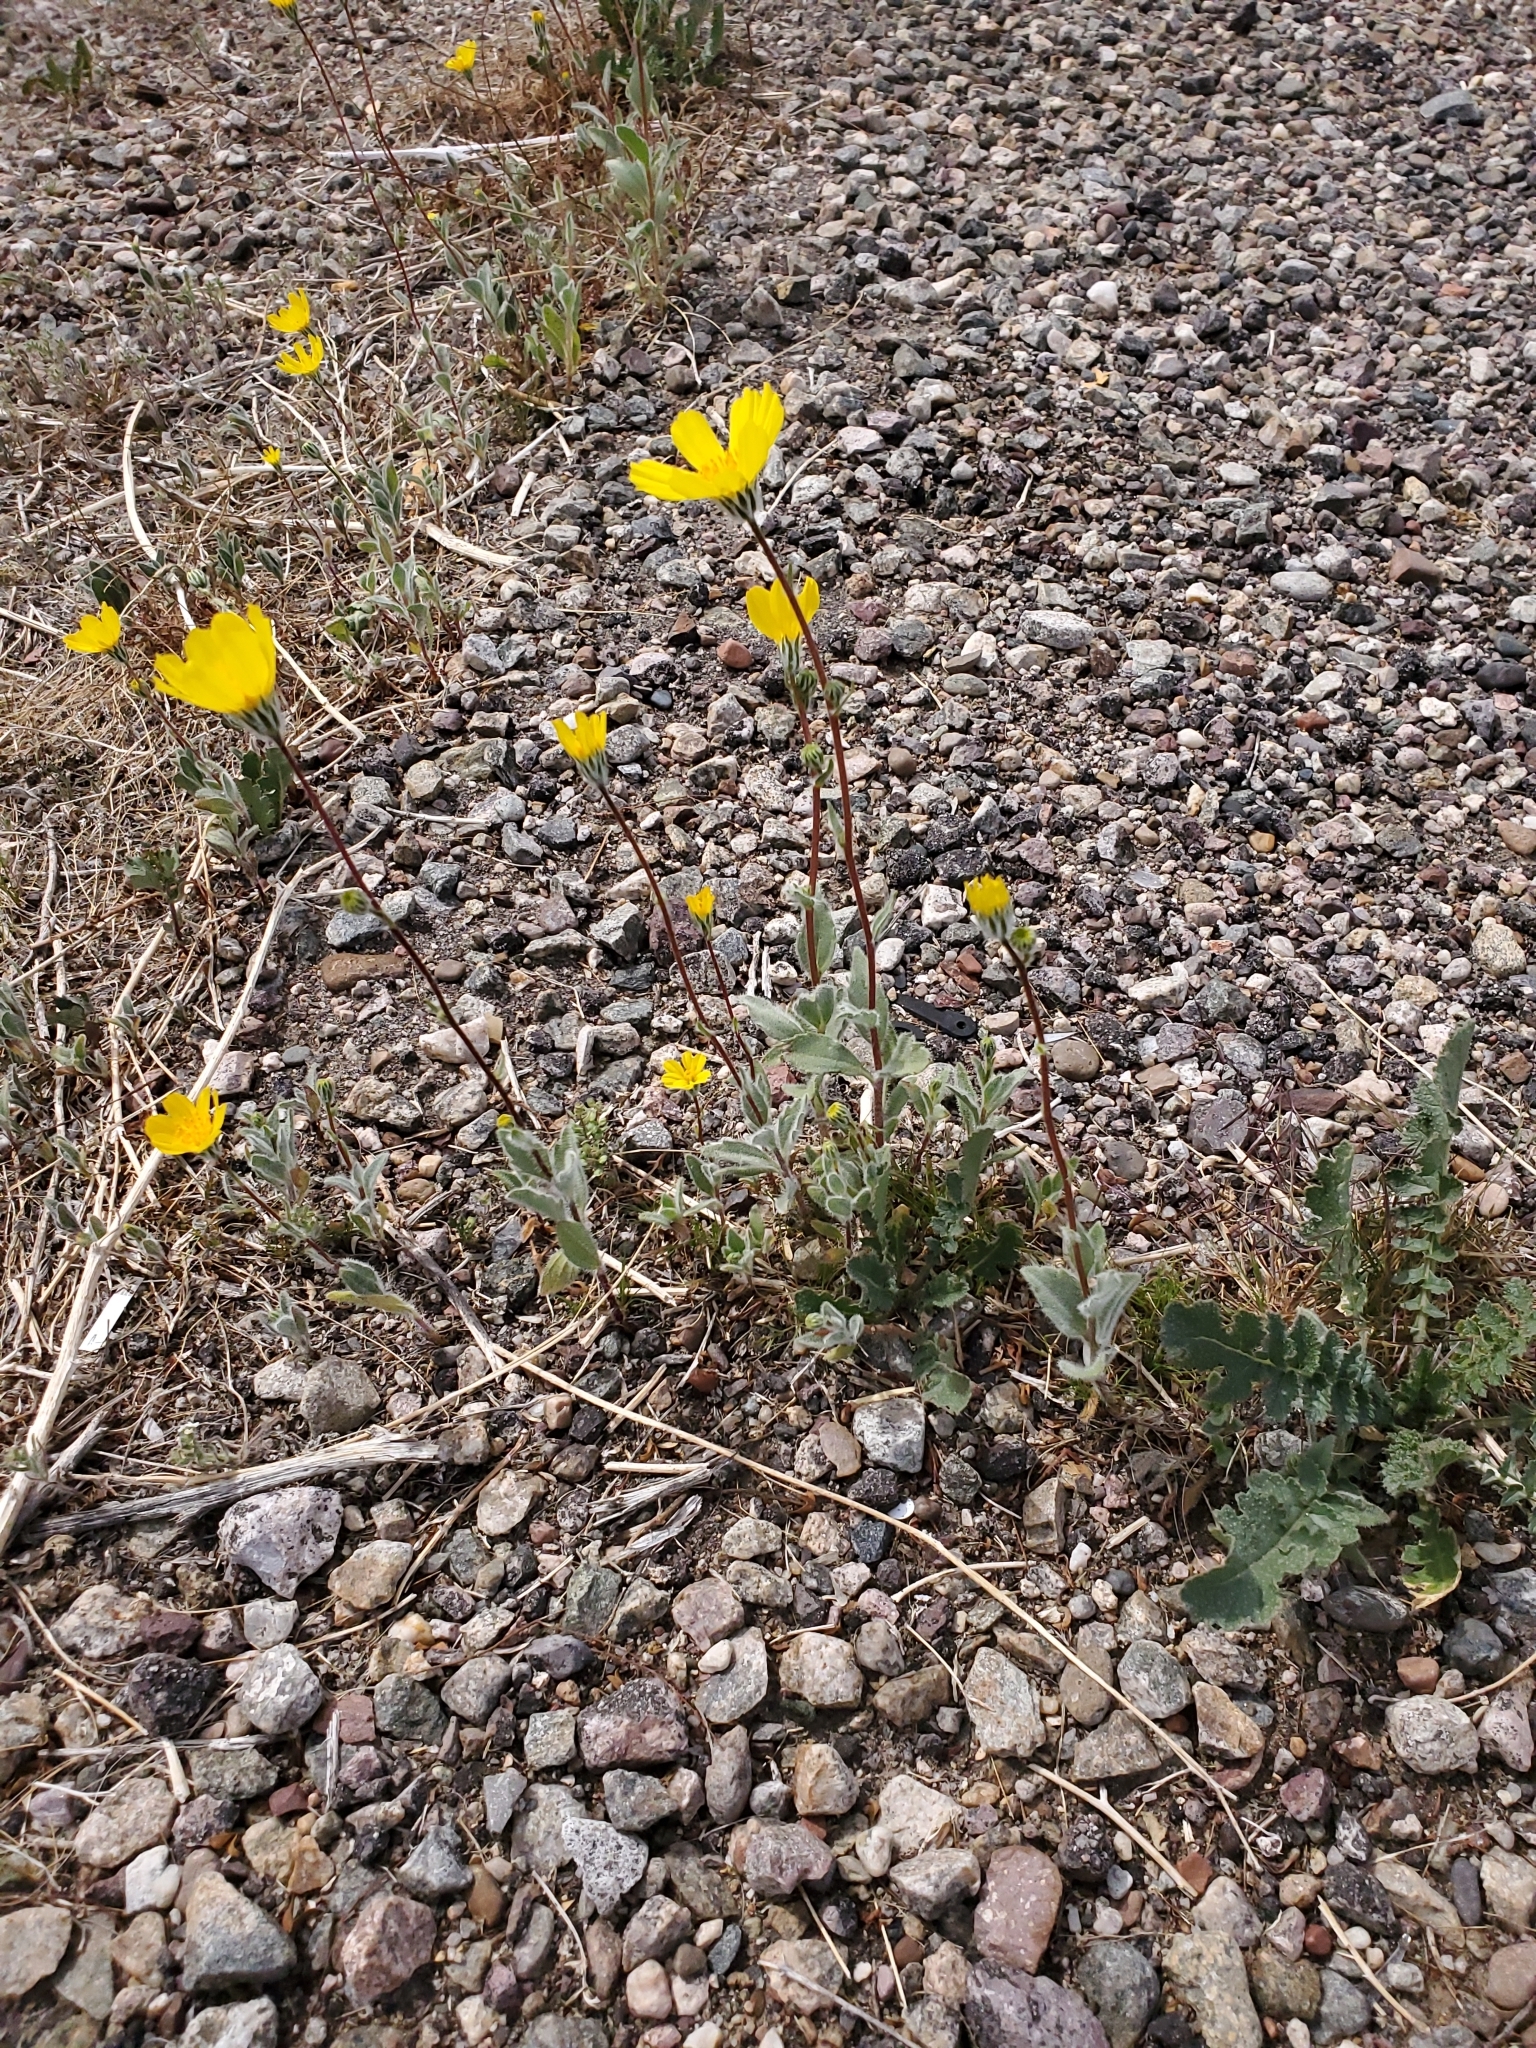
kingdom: Plantae
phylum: Tracheophyta
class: Magnoliopsida
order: Asterales
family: Asteraceae
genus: Geraea
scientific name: Geraea canescens
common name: Desert-gold
